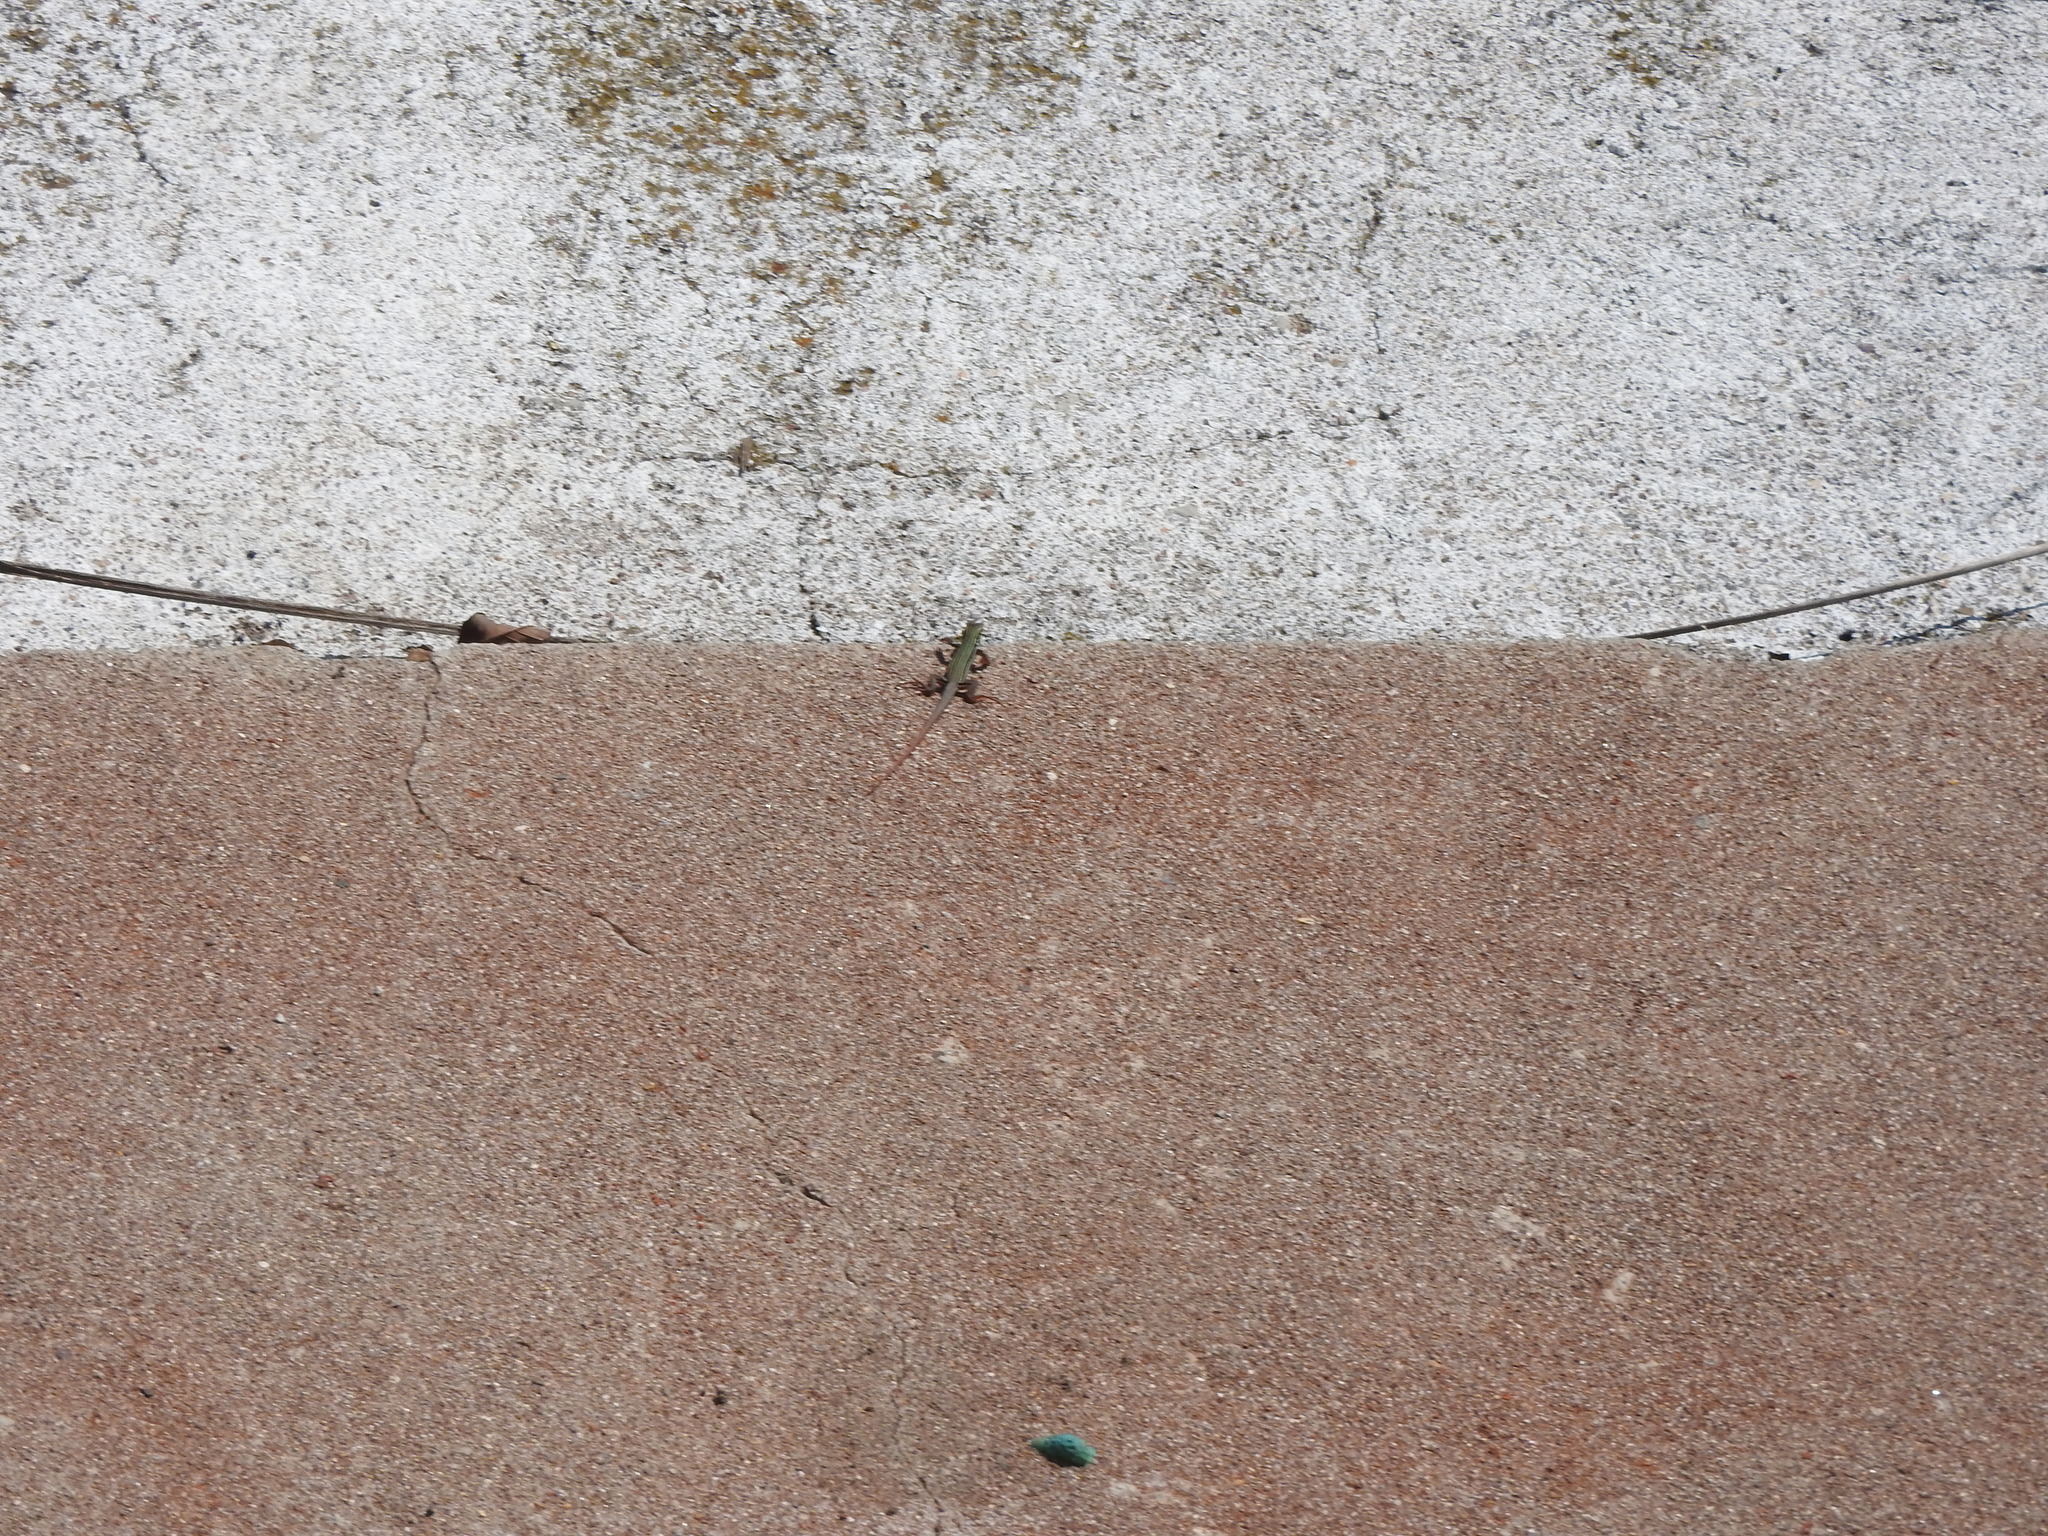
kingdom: Animalia
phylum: Chordata
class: Squamata
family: Teiidae
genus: Aspidoscelis
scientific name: Aspidoscelis gularis
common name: Eastern spotted whiptail
